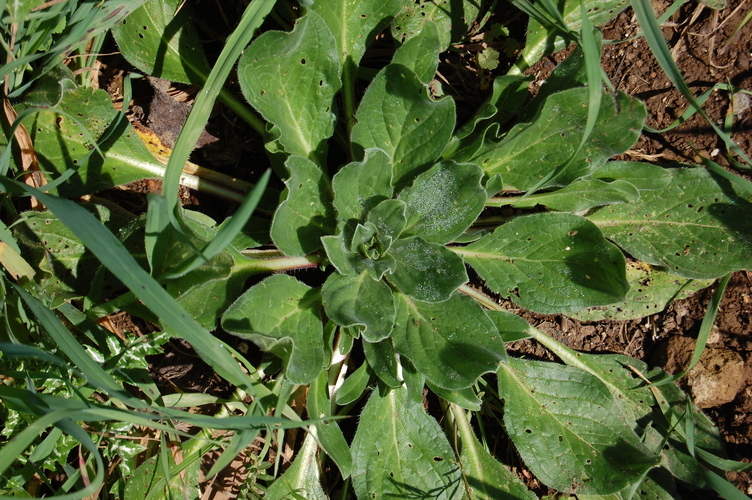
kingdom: Plantae
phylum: Tracheophyta
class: Magnoliopsida
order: Boraginales
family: Boraginaceae
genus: Echium
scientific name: Echium plantagineum
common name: Purple viper's-bugloss
